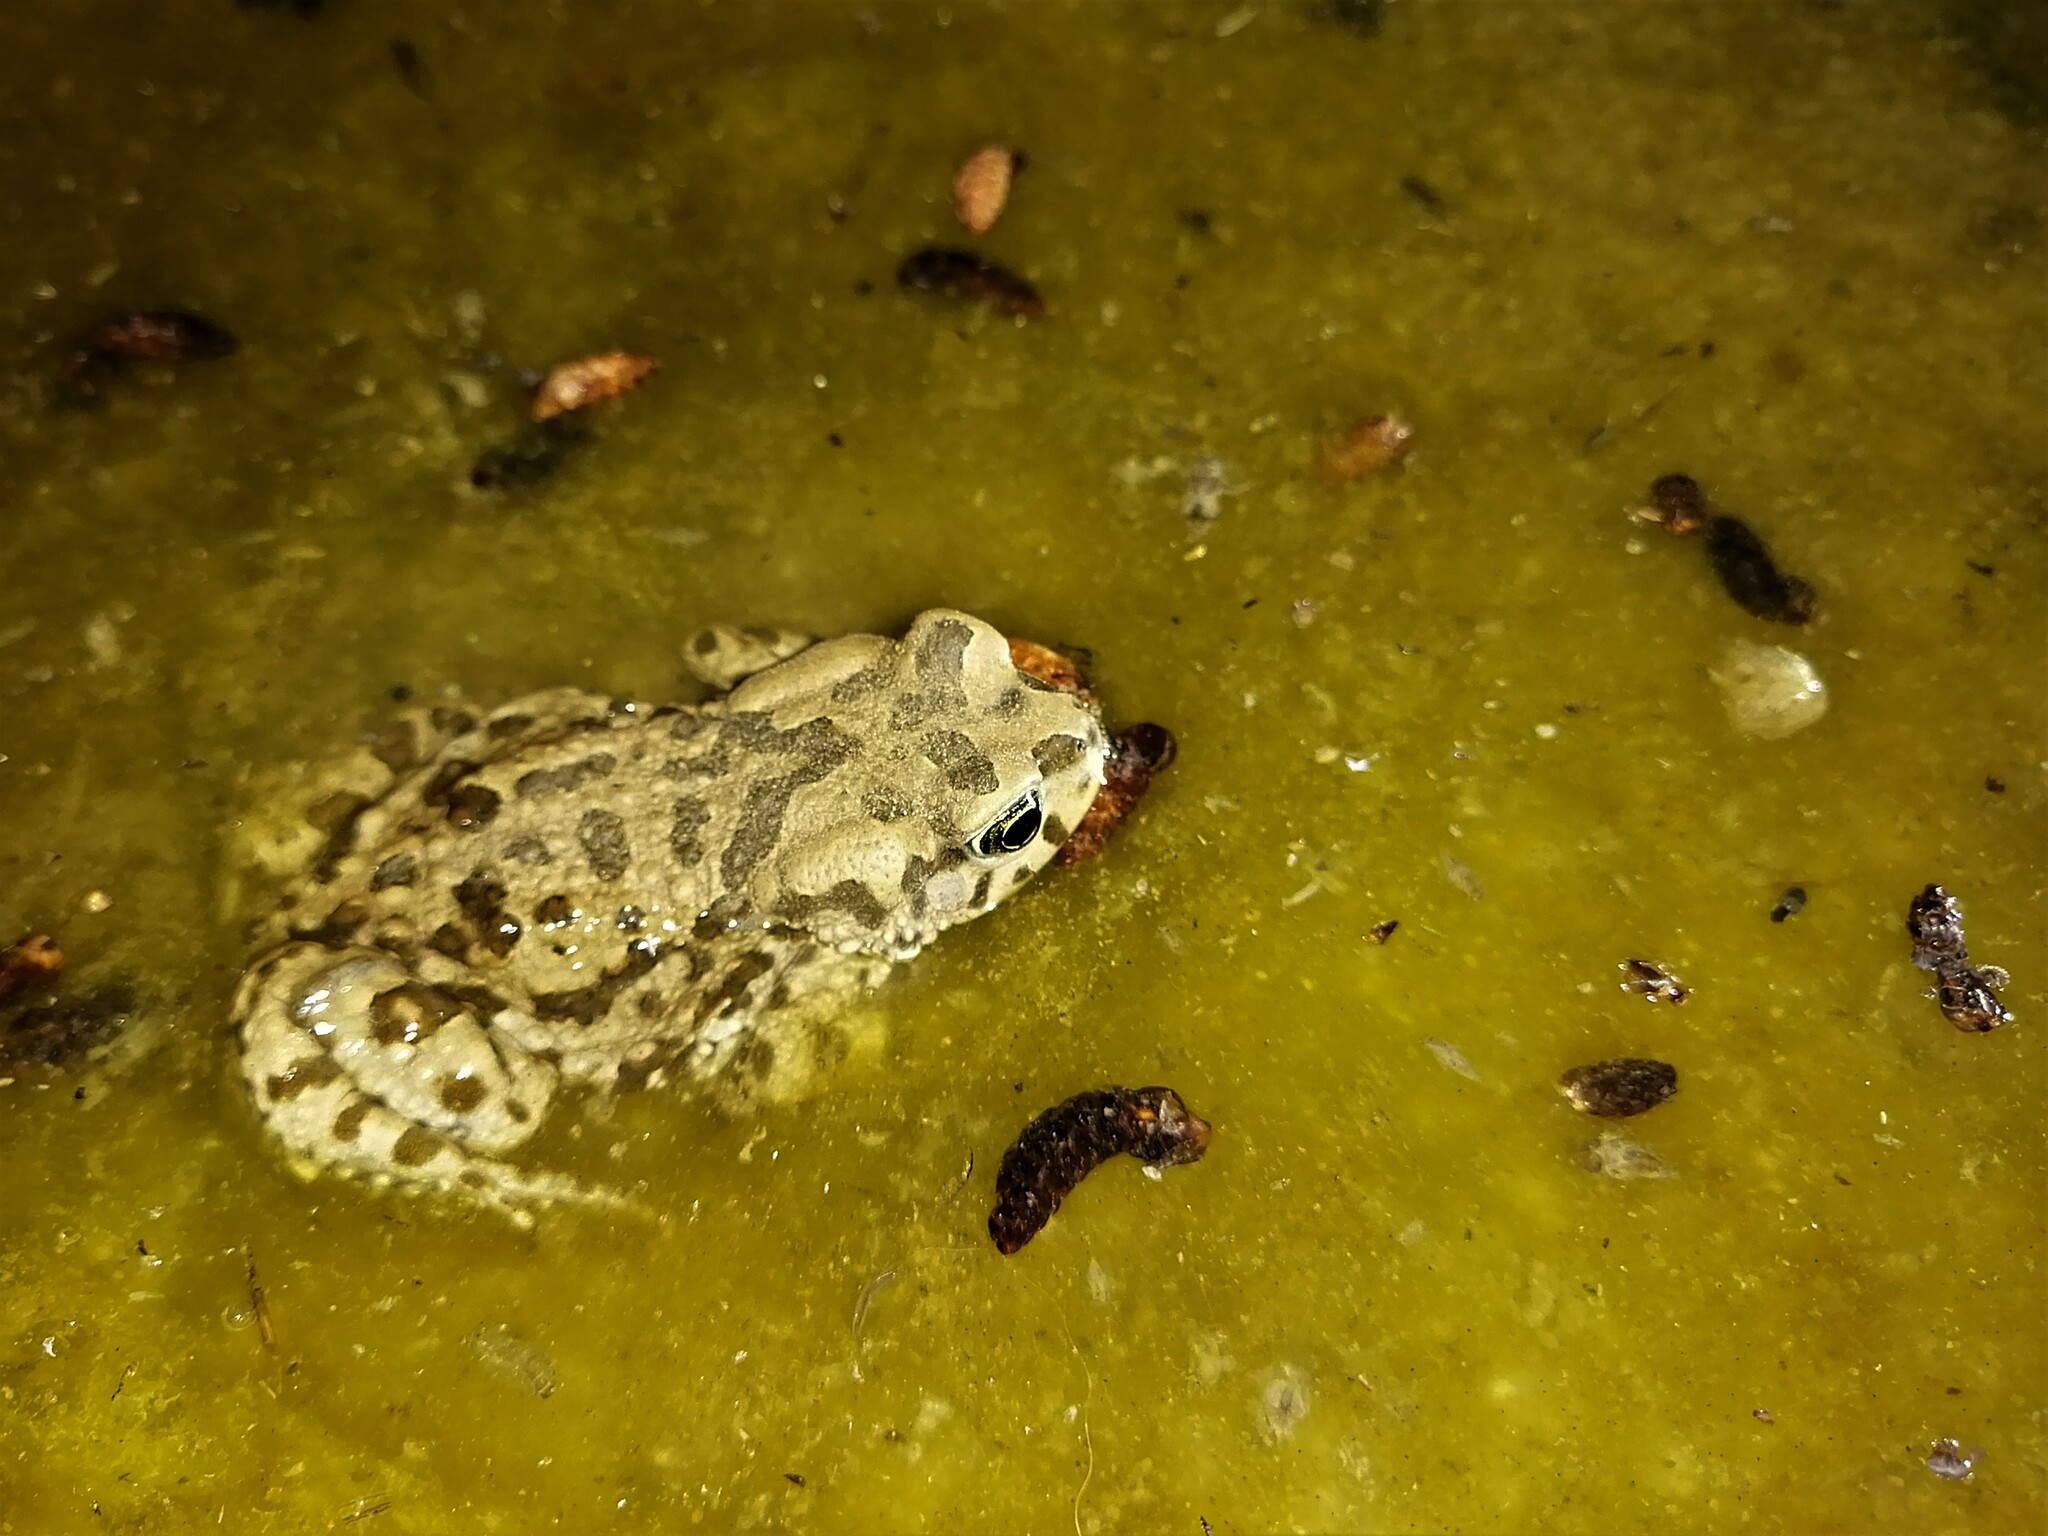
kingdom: Animalia
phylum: Chordata
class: Amphibia
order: Anura
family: Bufonidae
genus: Vandijkophrynus
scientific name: Vandijkophrynus gariepensis
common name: Gariep toad
